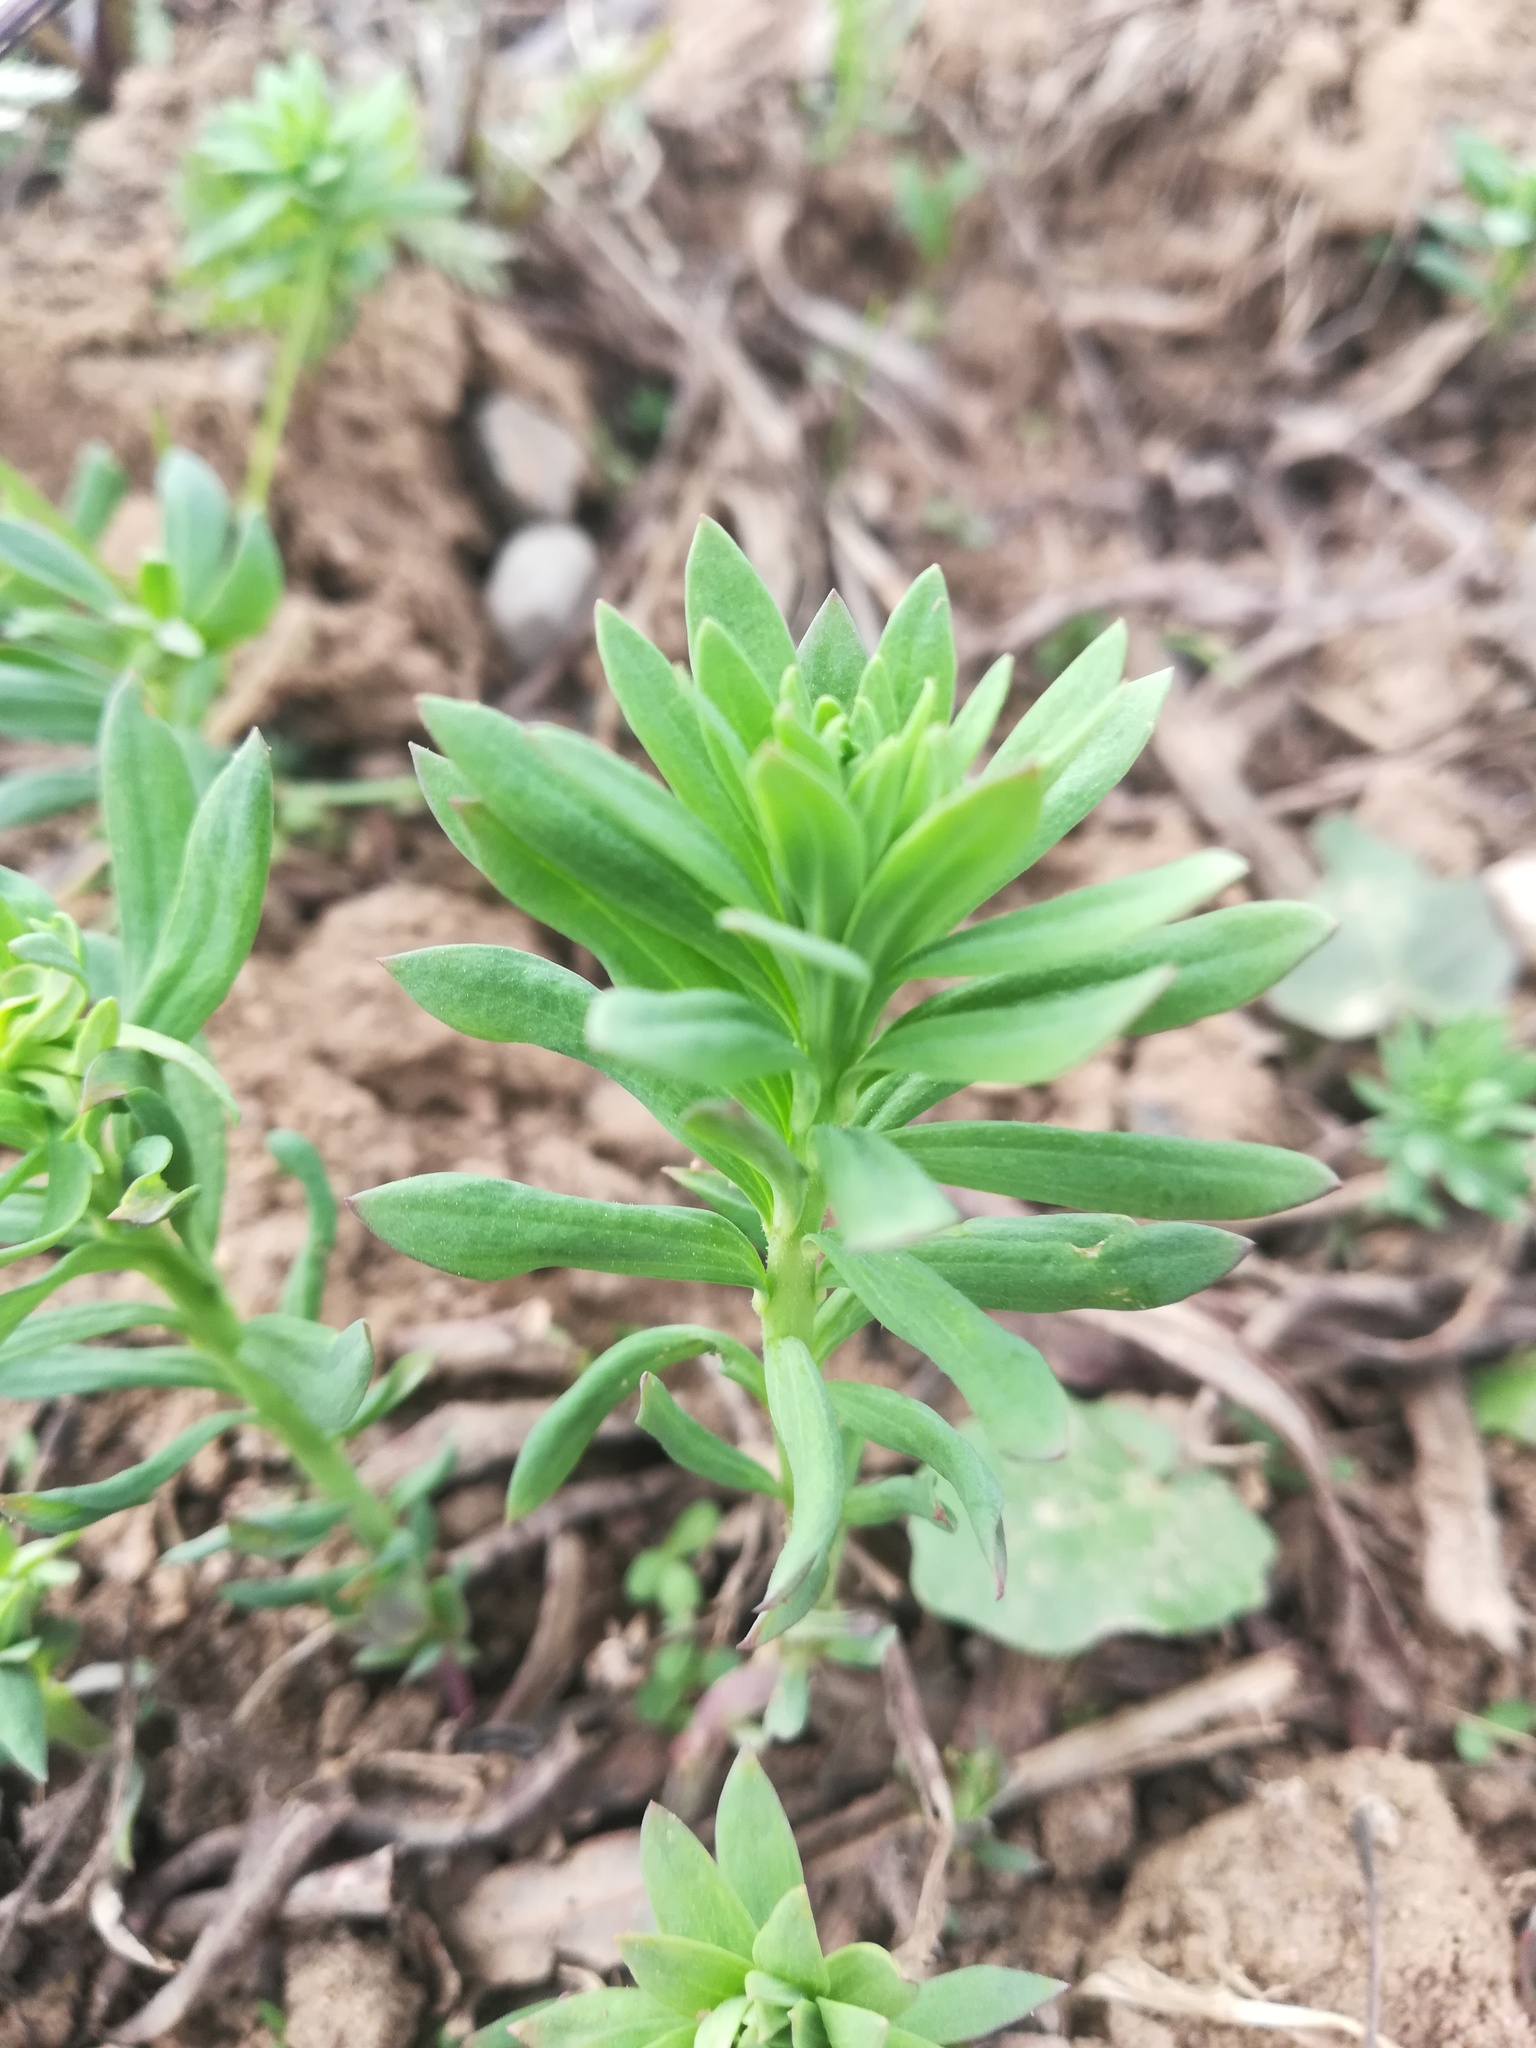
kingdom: Plantae
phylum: Tracheophyta
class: Magnoliopsida
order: Lamiales
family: Plantaginaceae
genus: Linaria
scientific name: Linaria vulgaris
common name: Butter and eggs
